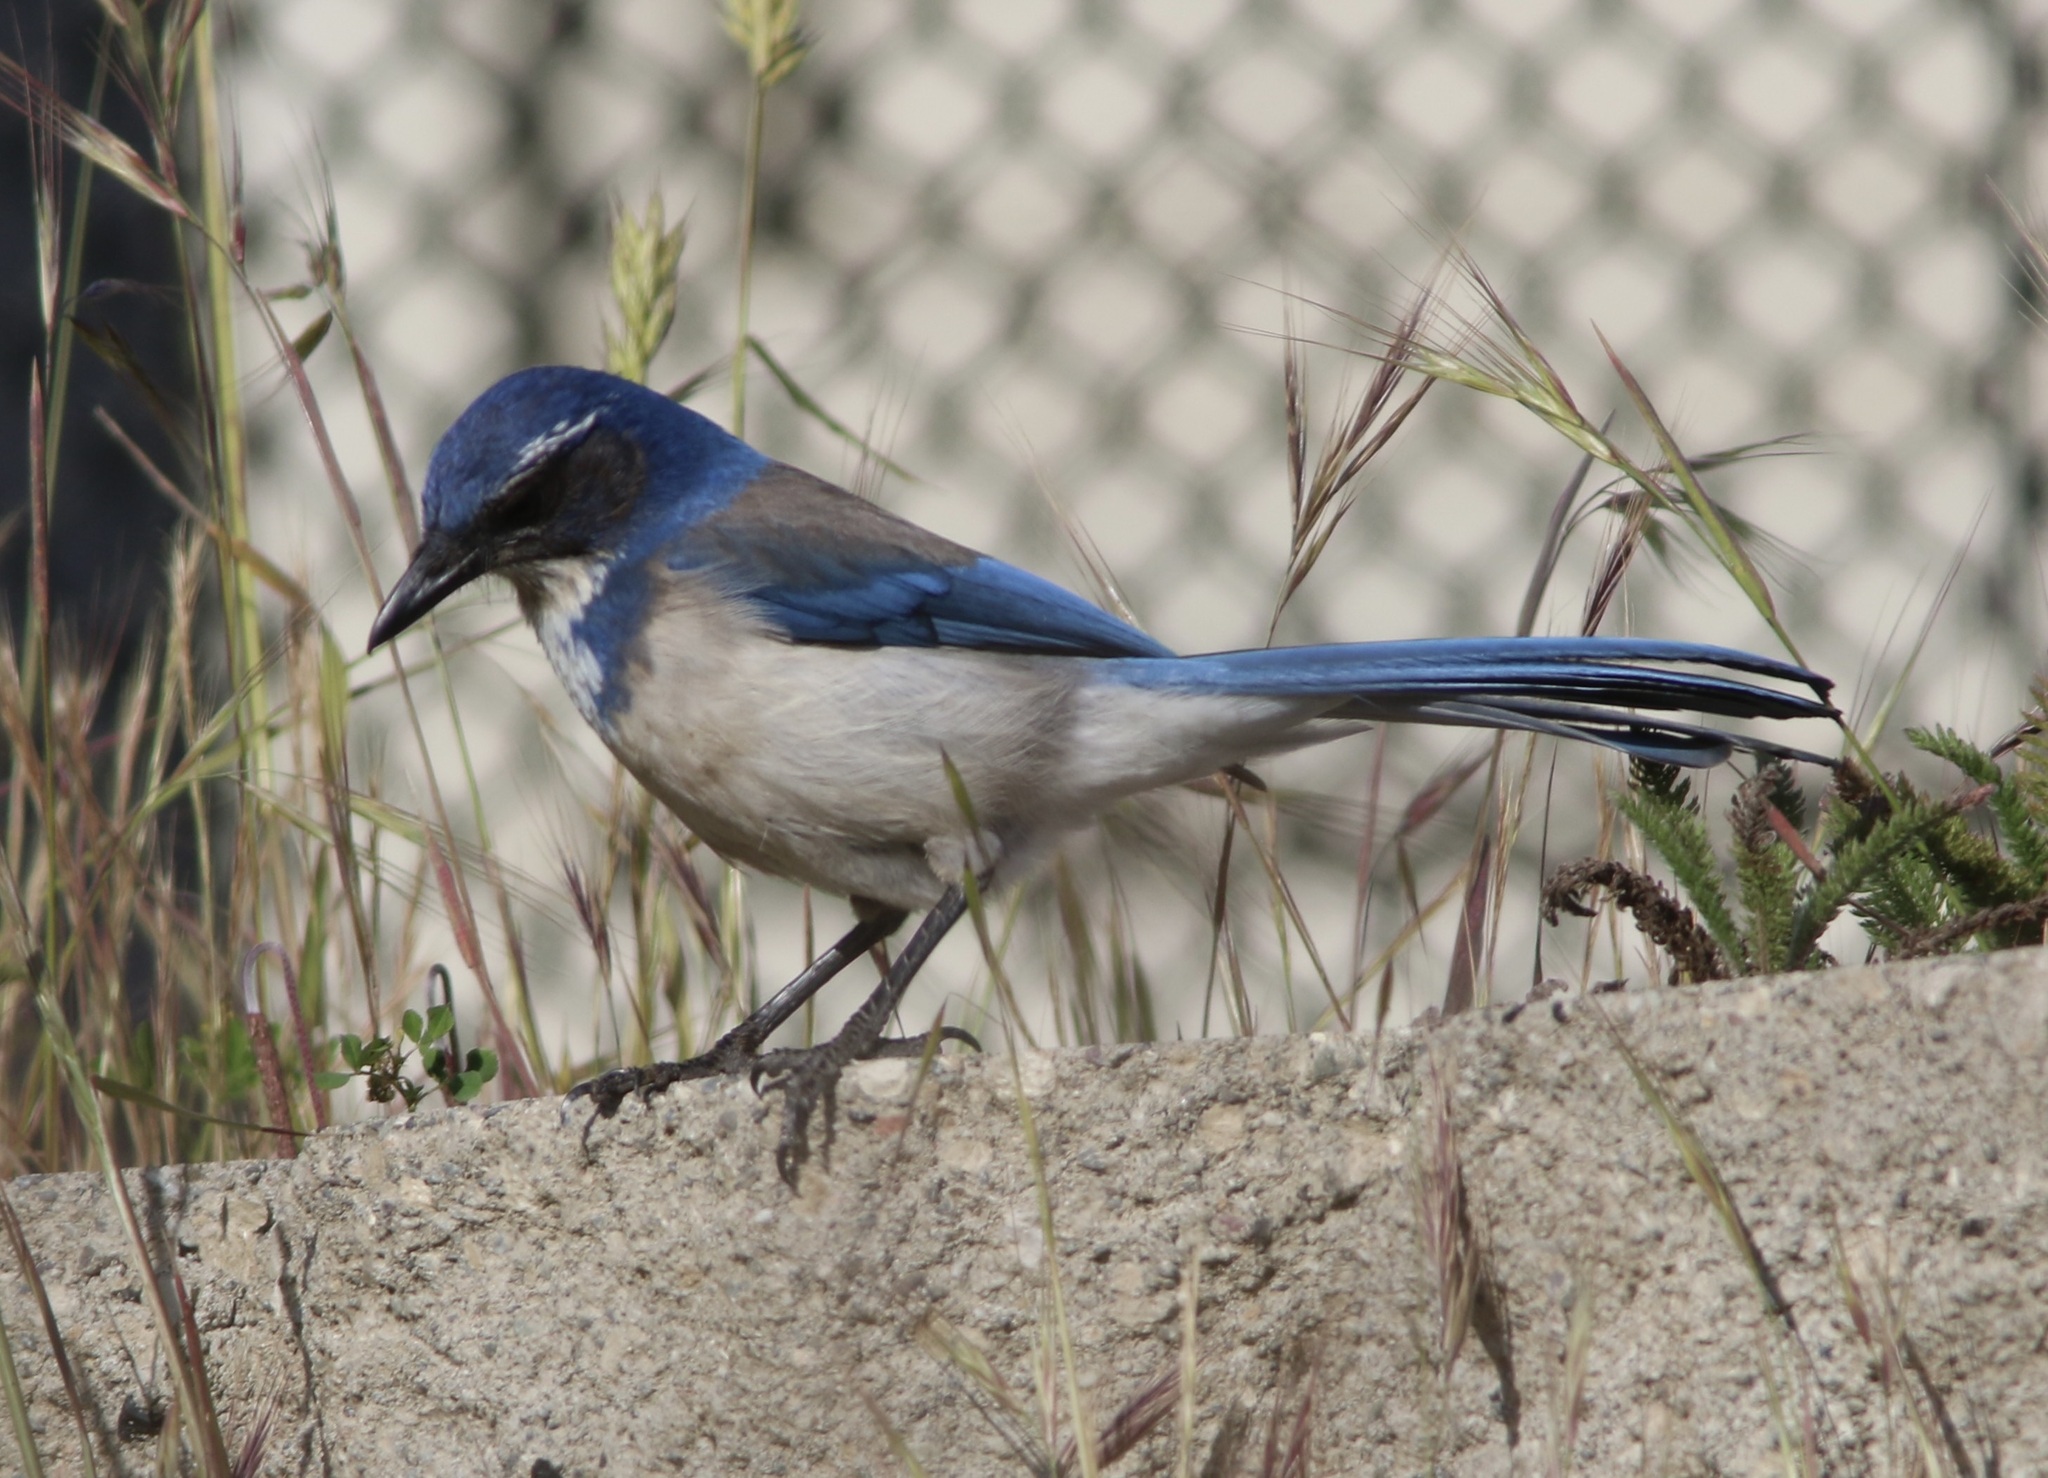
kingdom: Animalia
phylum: Chordata
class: Aves
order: Passeriformes
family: Corvidae
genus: Aphelocoma
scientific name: Aphelocoma californica
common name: California scrub-jay
